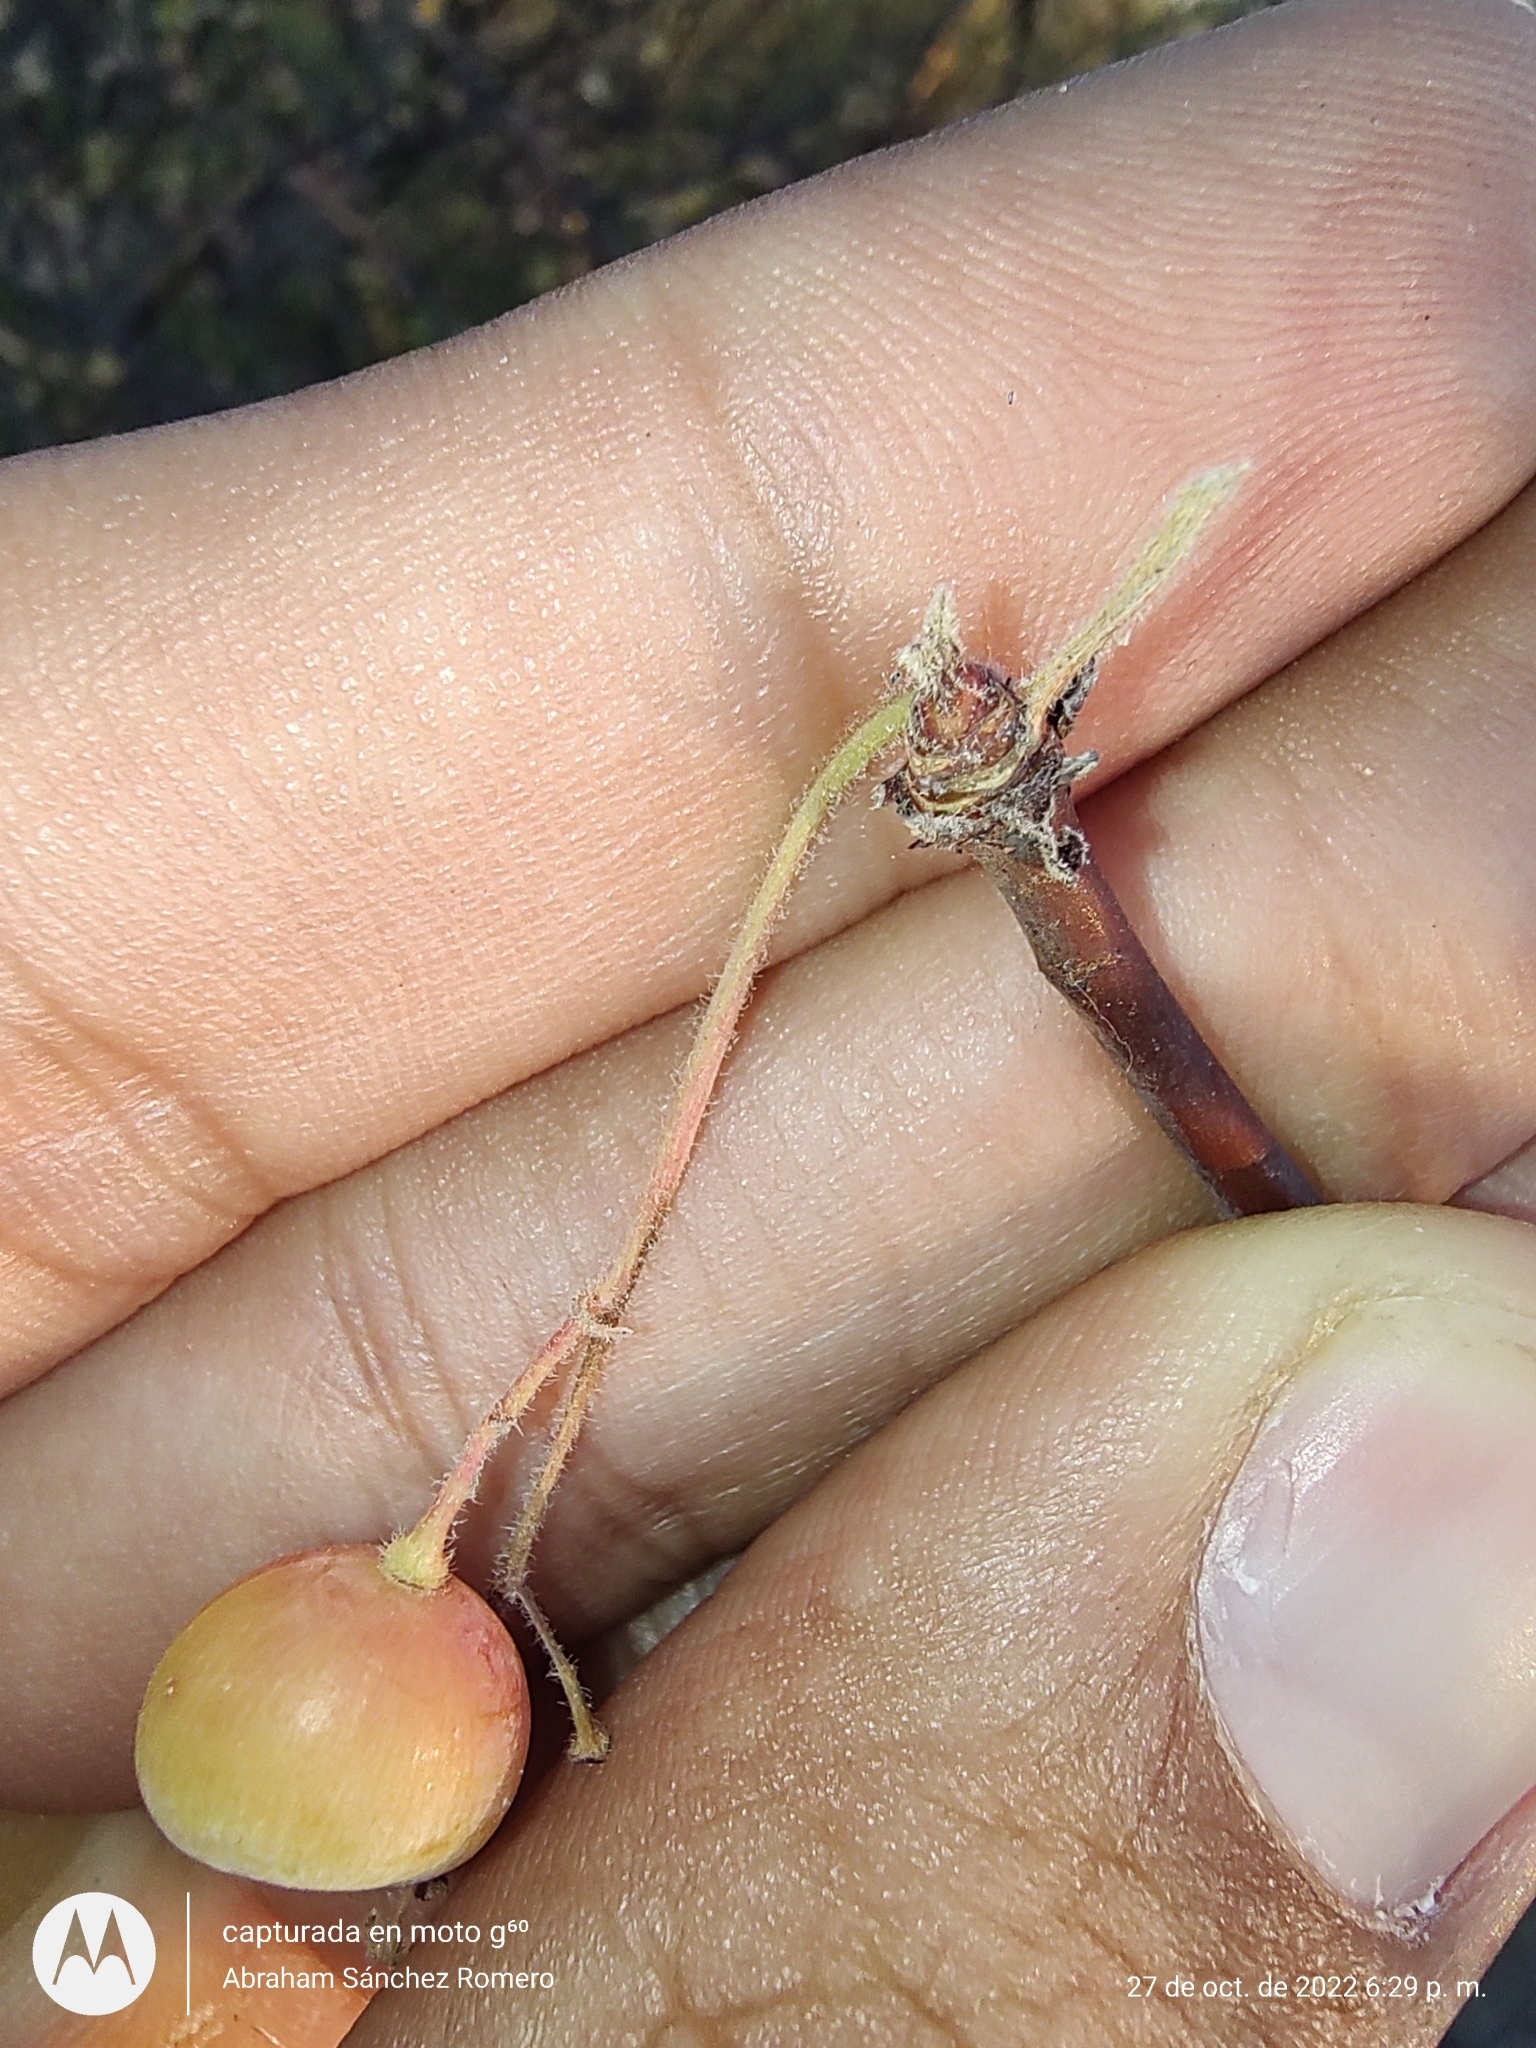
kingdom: Plantae
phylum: Tracheophyta
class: Magnoliopsida
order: Sapindales
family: Burseraceae
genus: Bursera
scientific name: Bursera epinnata
